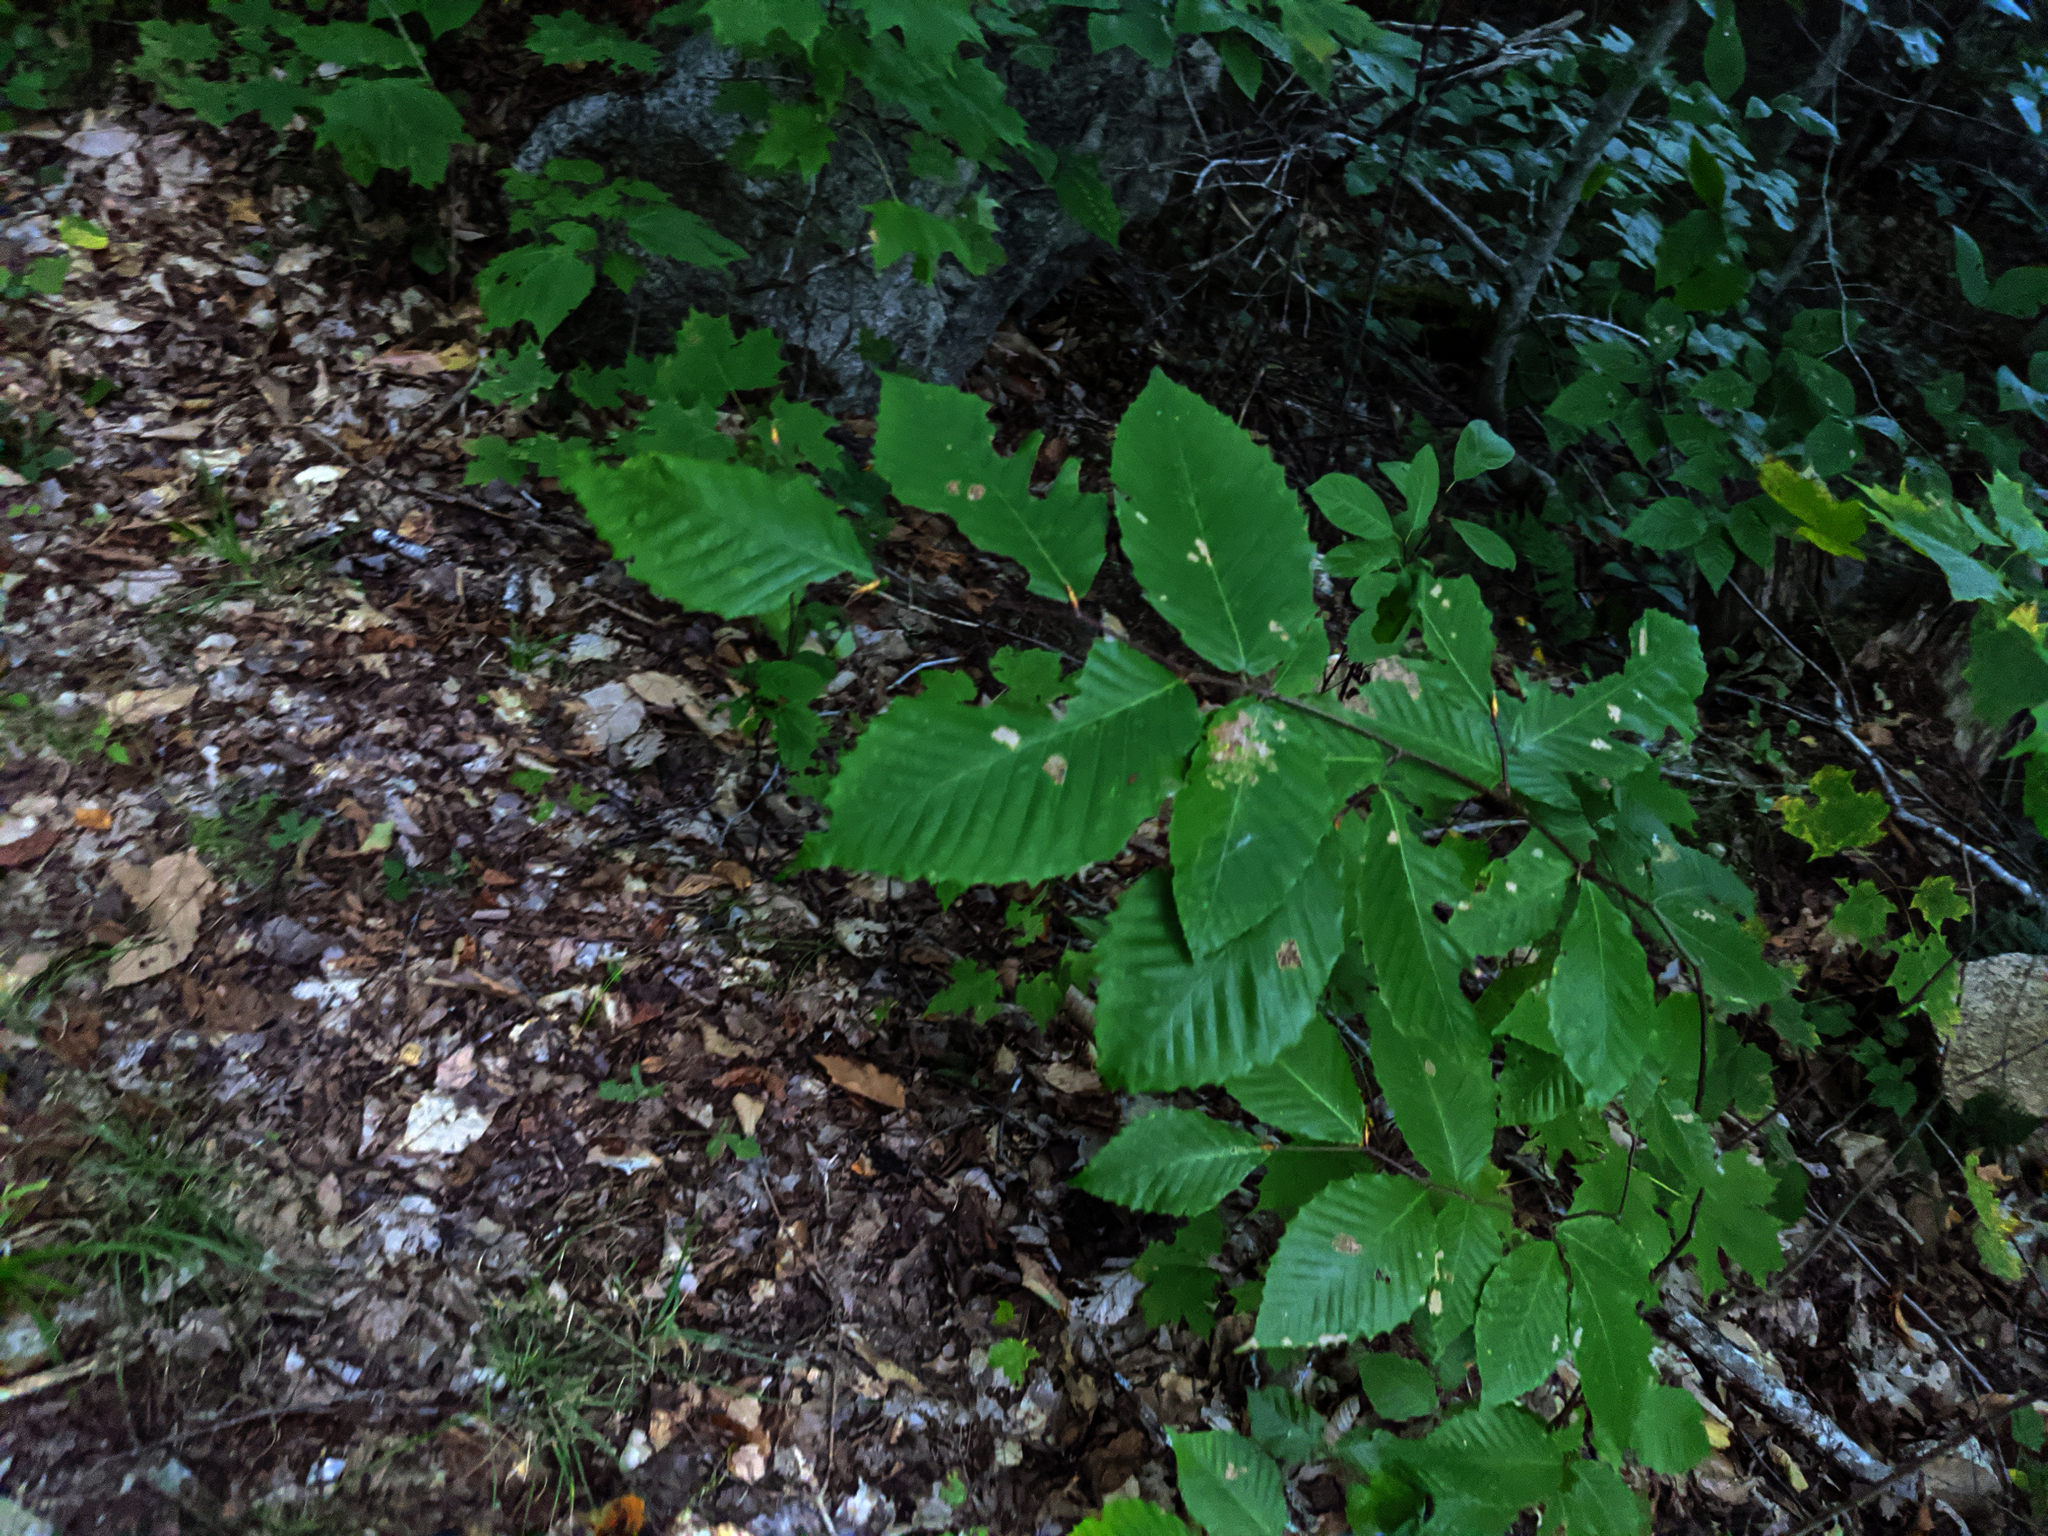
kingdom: Plantae
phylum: Tracheophyta
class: Magnoliopsida
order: Fagales
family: Fagaceae
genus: Fagus
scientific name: Fagus grandifolia
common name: American beech
